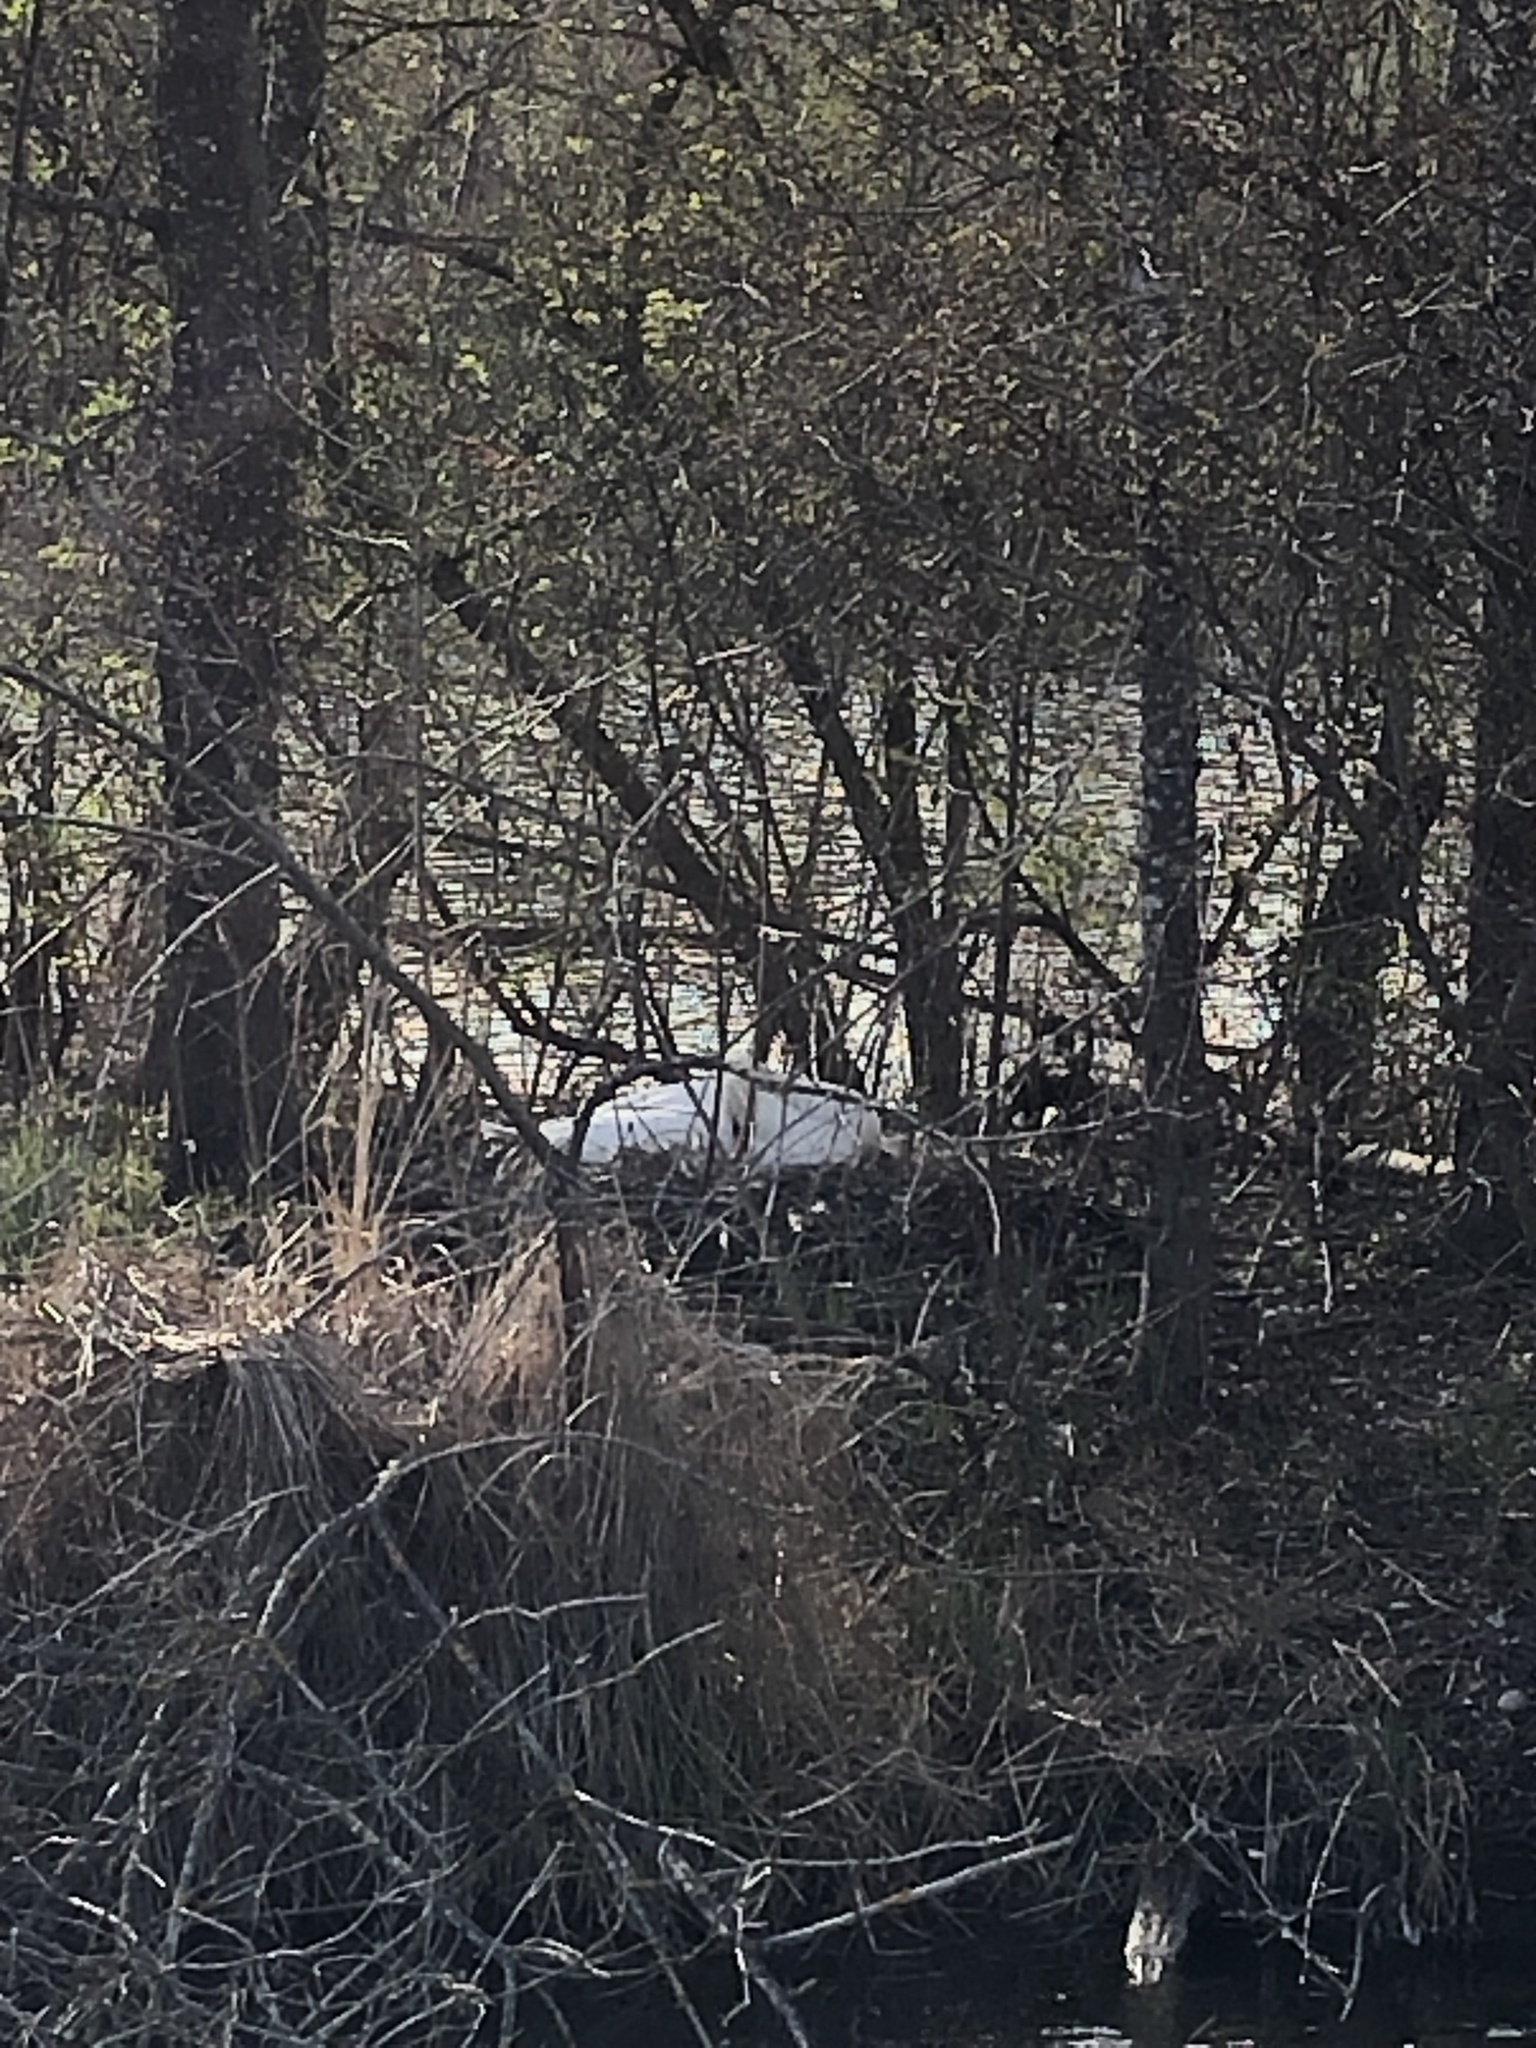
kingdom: Animalia
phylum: Chordata
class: Aves
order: Anseriformes
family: Anatidae
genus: Cygnus
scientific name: Cygnus olor
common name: Mute swan
